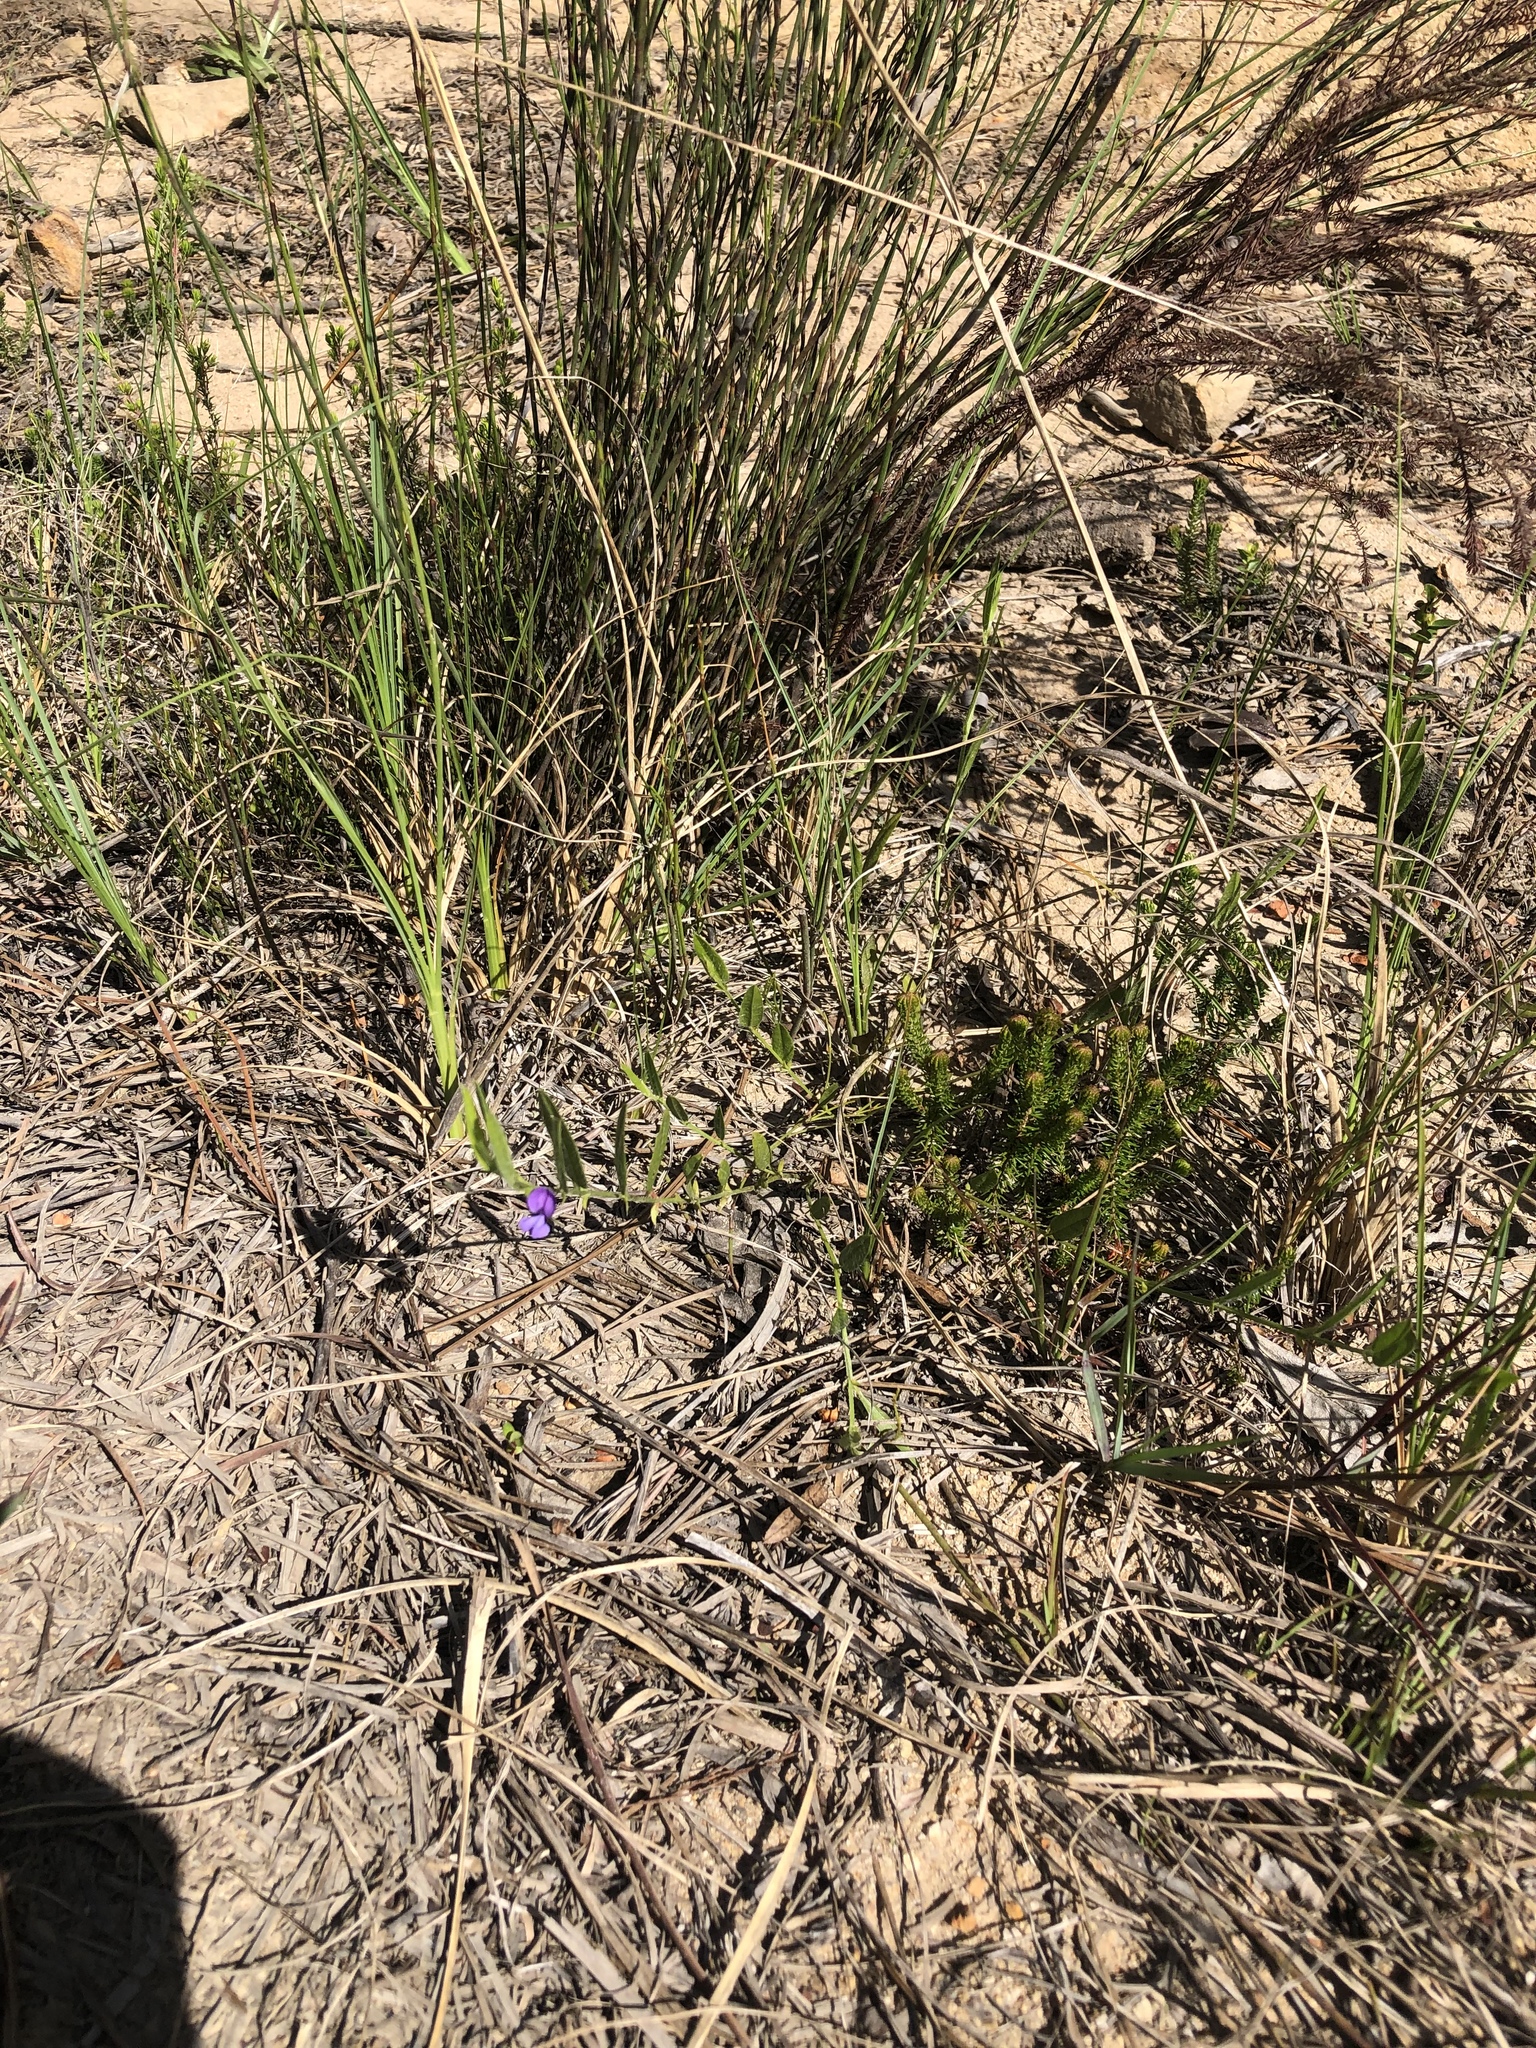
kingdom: Plantae
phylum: Tracheophyta
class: Magnoliopsida
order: Fabales
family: Fabaceae
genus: Psoralea
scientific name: Psoralea plauta
